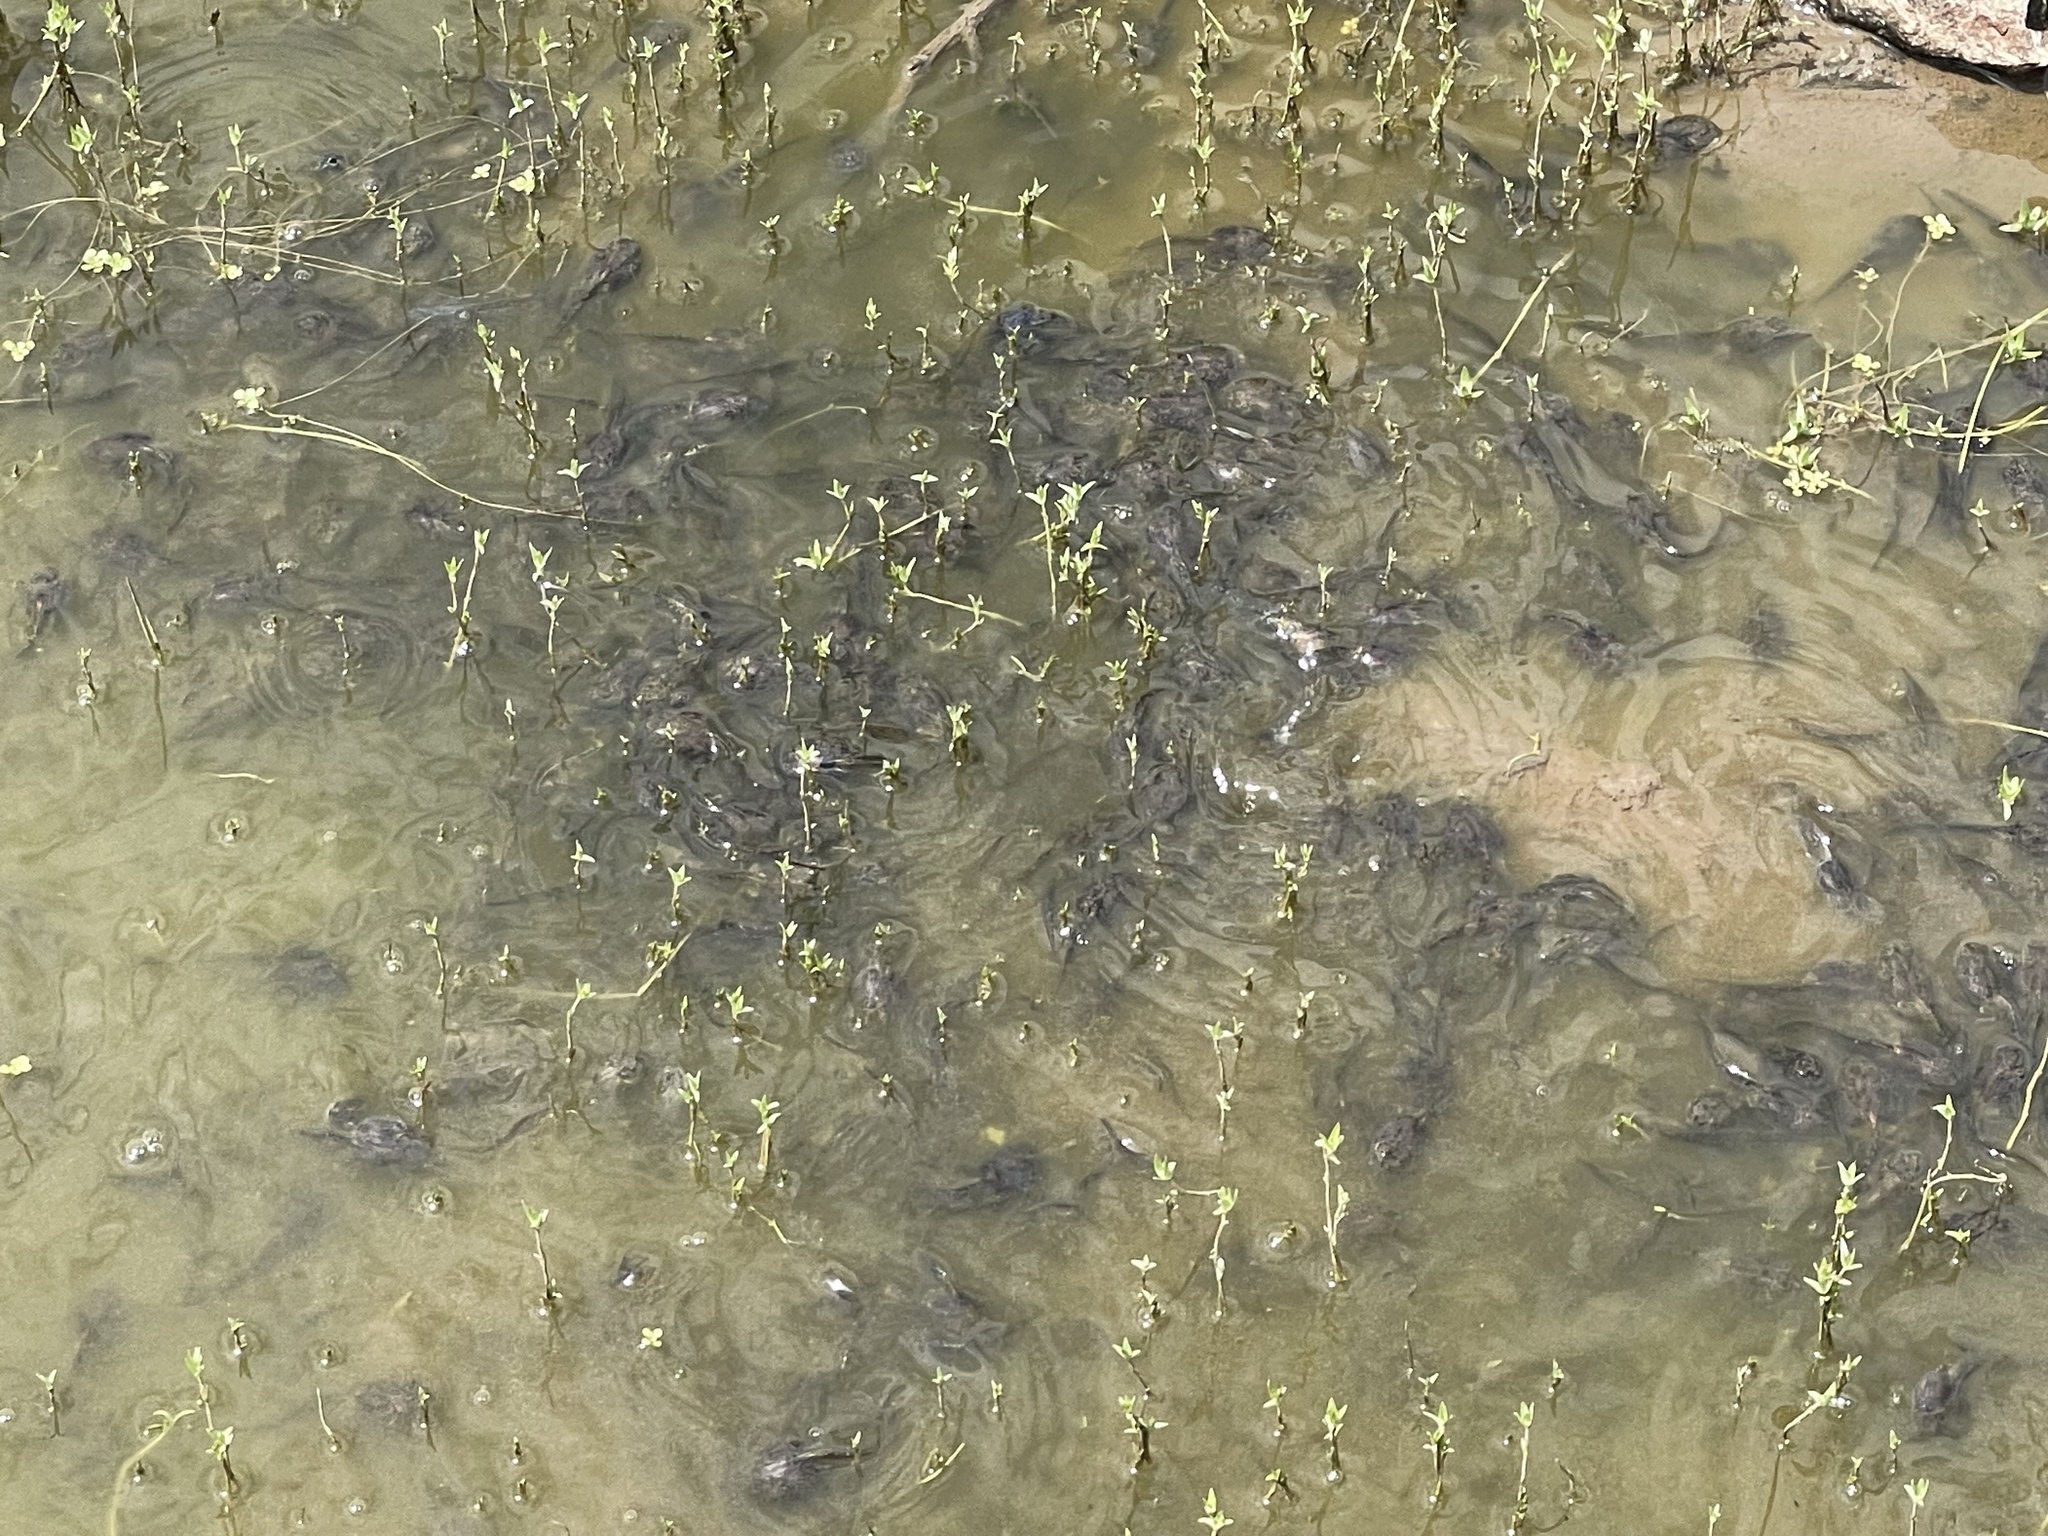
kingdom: Animalia
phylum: Chordata
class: Amphibia
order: Anura
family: Scaphiopodidae
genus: Spea
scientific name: Spea hammondii
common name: Western spadefoot toad
